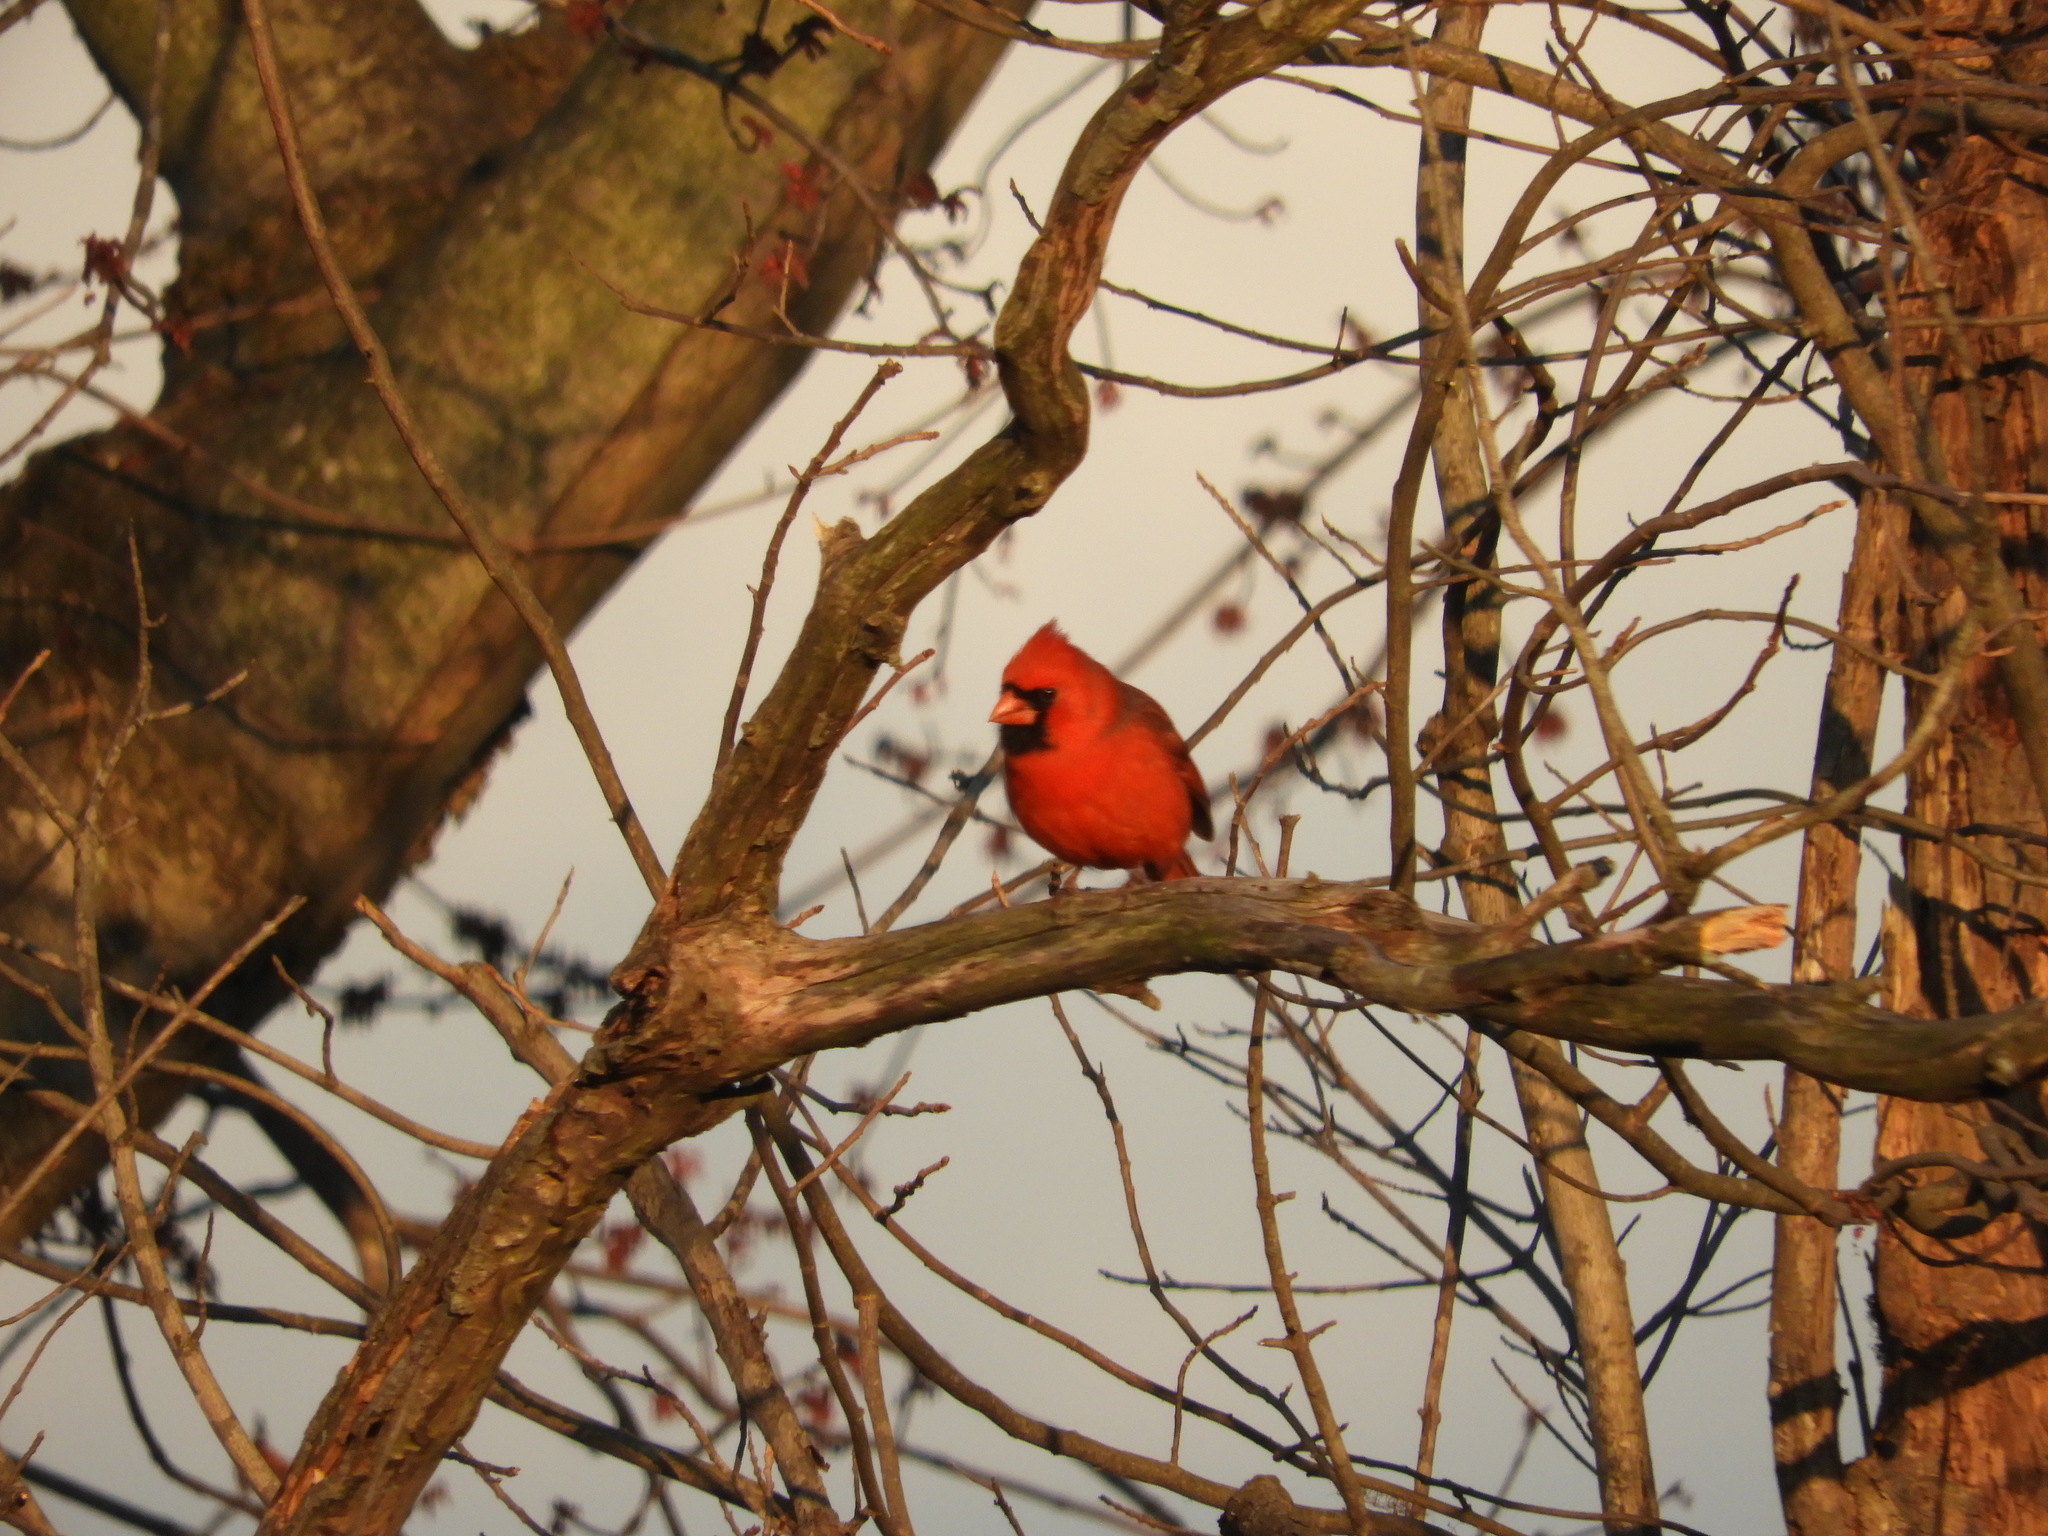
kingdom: Animalia
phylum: Chordata
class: Aves
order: Passeriformes
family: Cardinalidae
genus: Cardinalis
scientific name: Cardinalis cardinalis
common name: Northern cardinal
